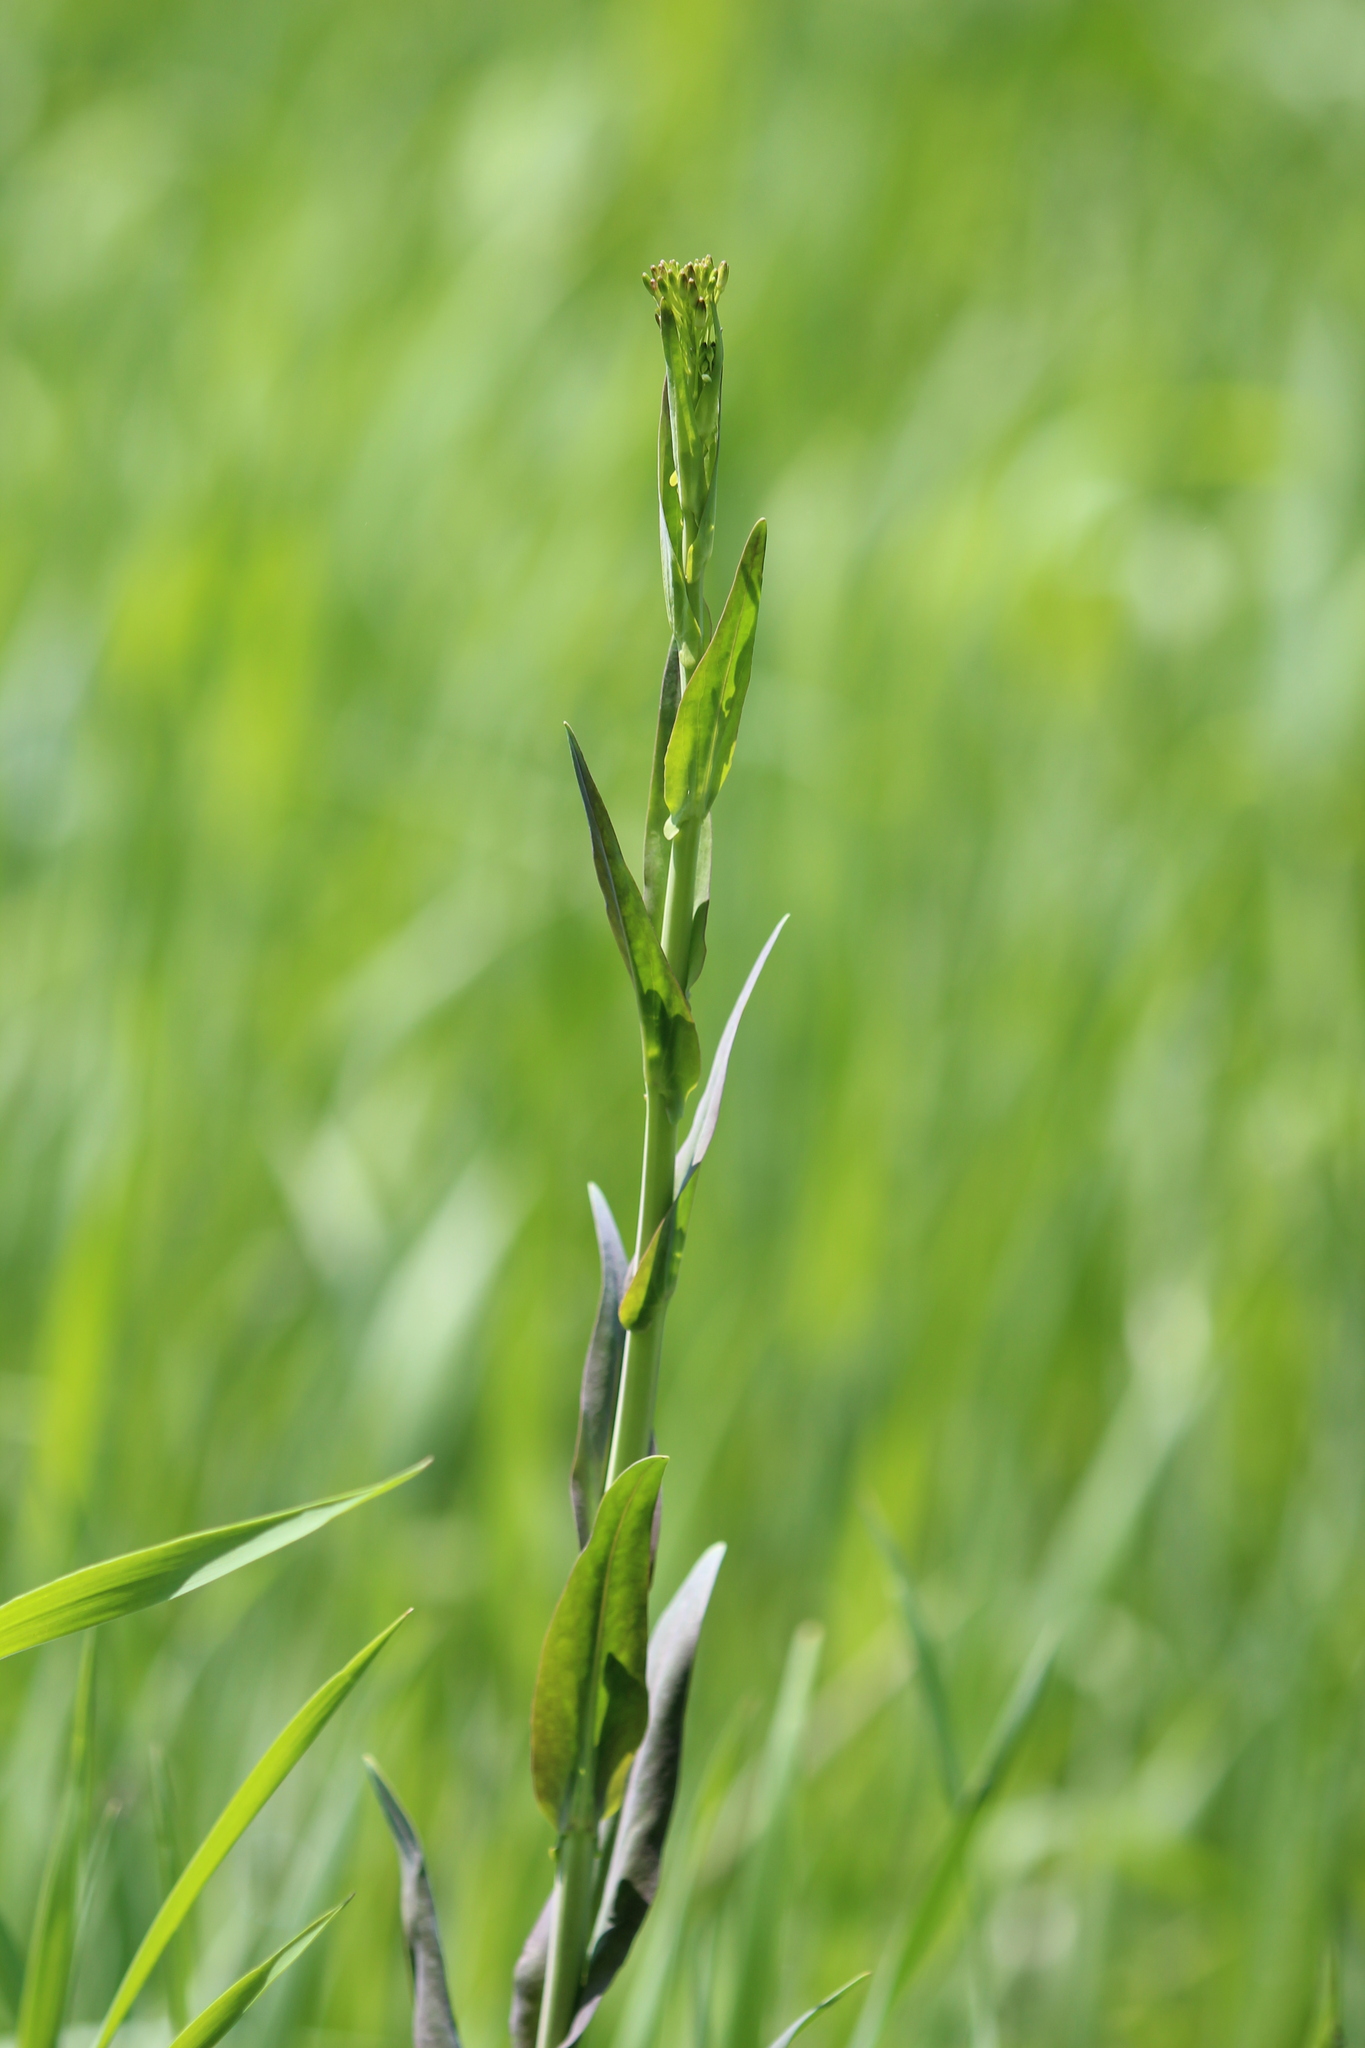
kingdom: Plantae
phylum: Tracheophyta
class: Magnoliopsida
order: Brassicales
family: Brassicaceae
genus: Turritis
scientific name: Turritis glabra
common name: Tower rockcress
